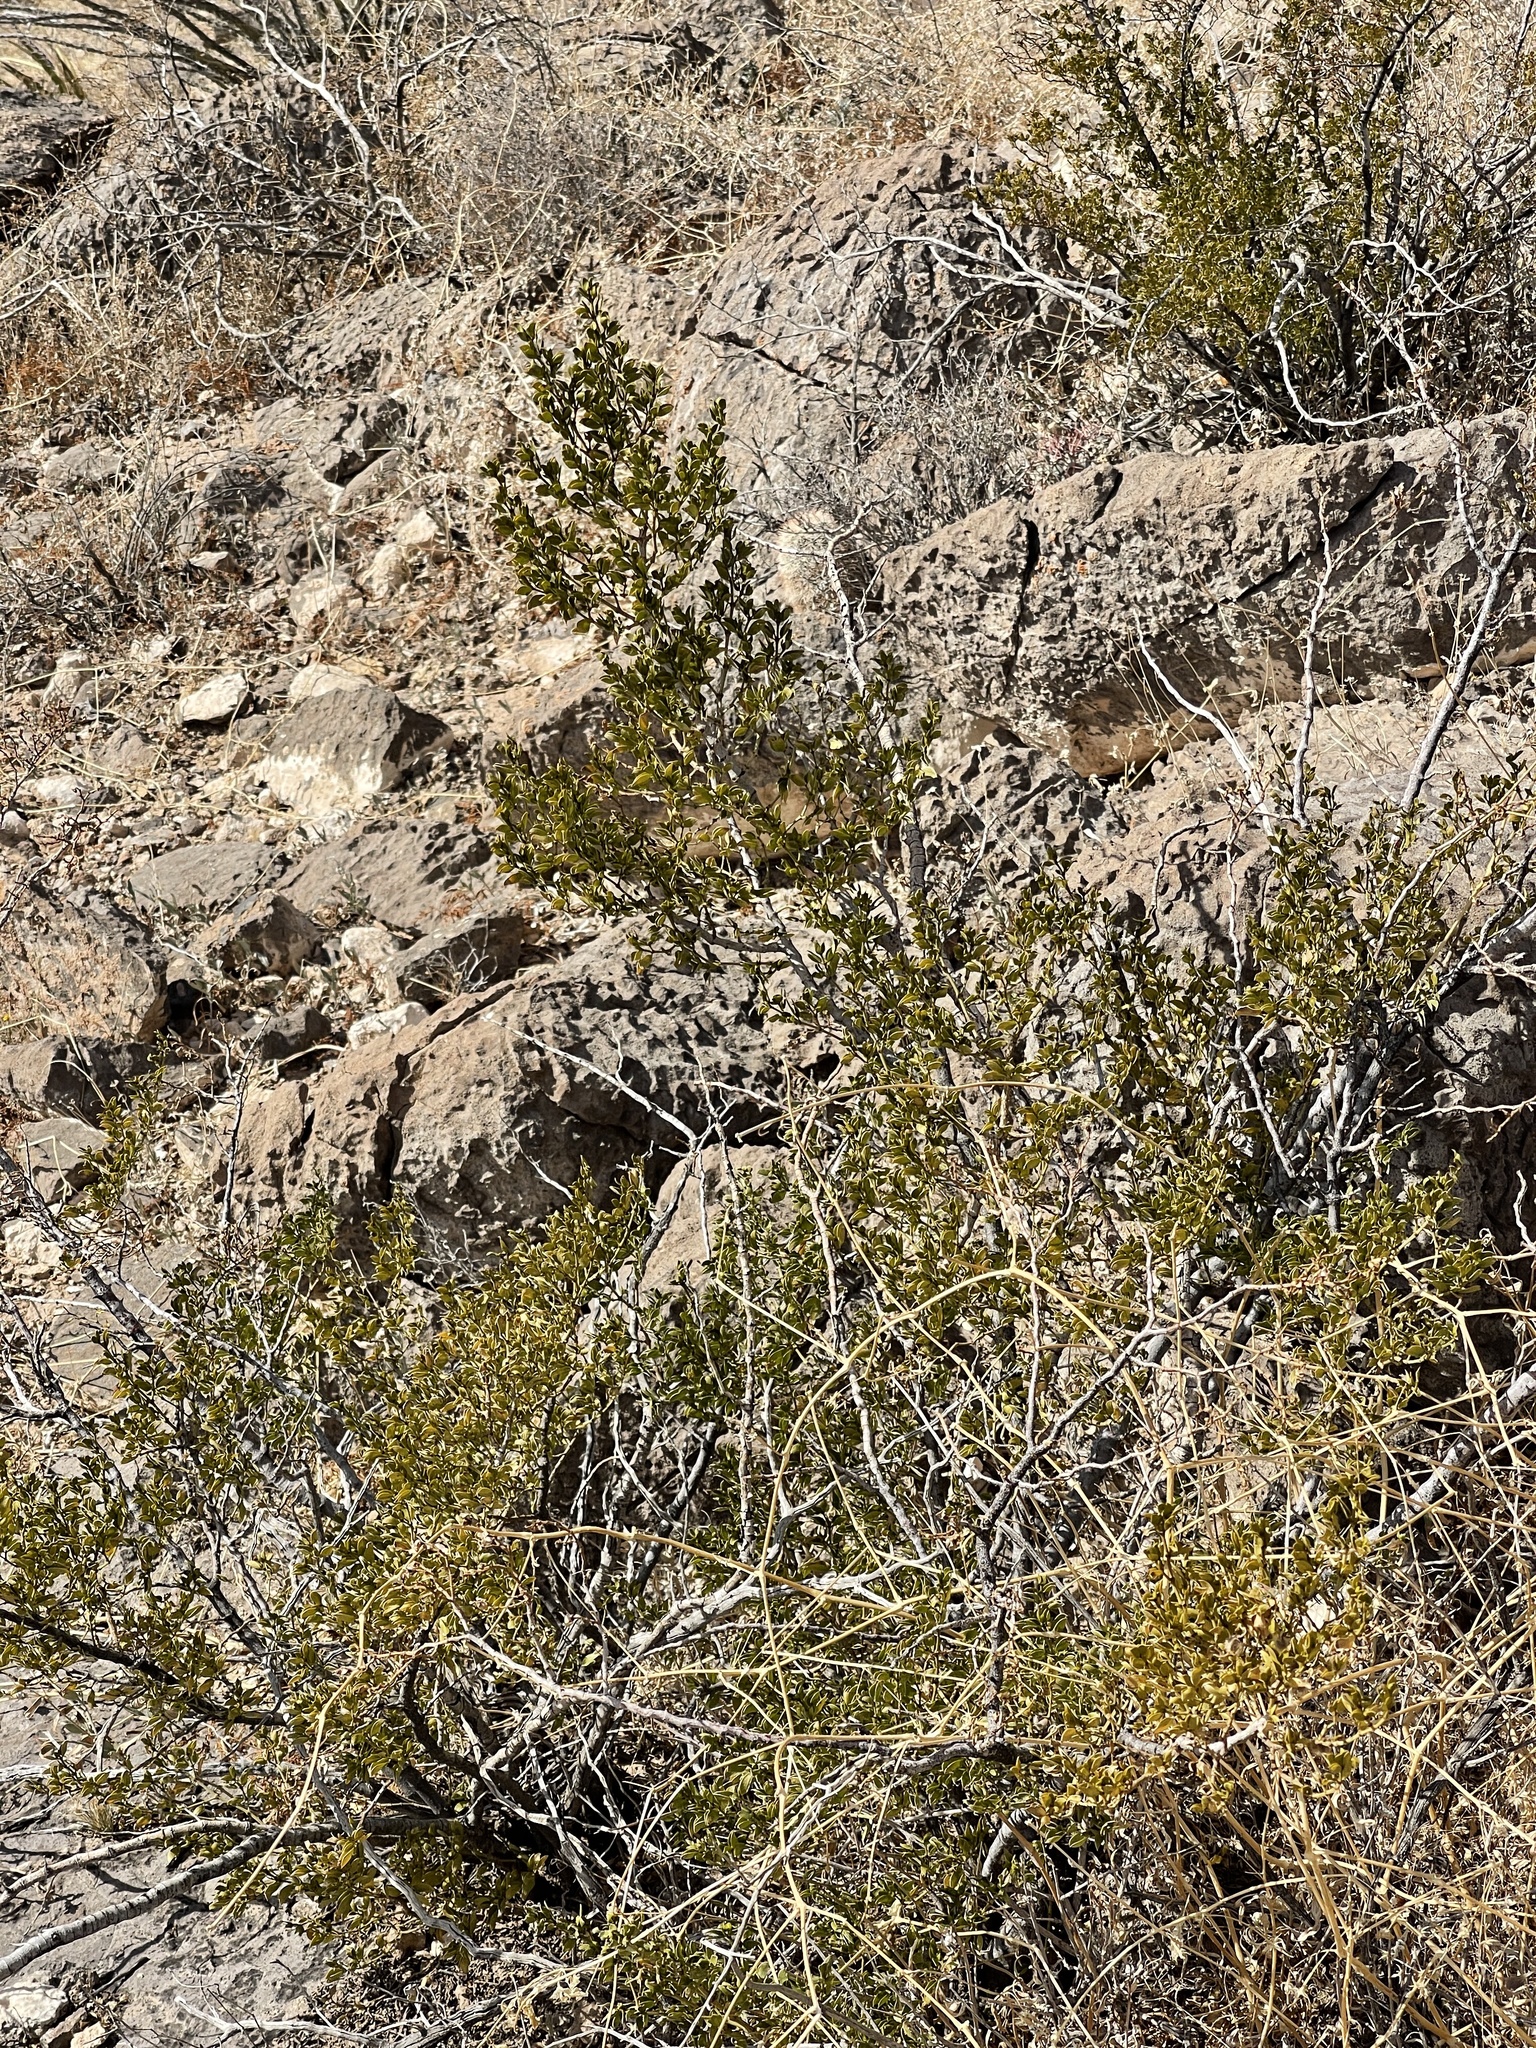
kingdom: Plantae
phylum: Tracheophyta
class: Magnoliopsida
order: Zygophyllales
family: Zygophyllaceae
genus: Larrea
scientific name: Larrea tridentata
